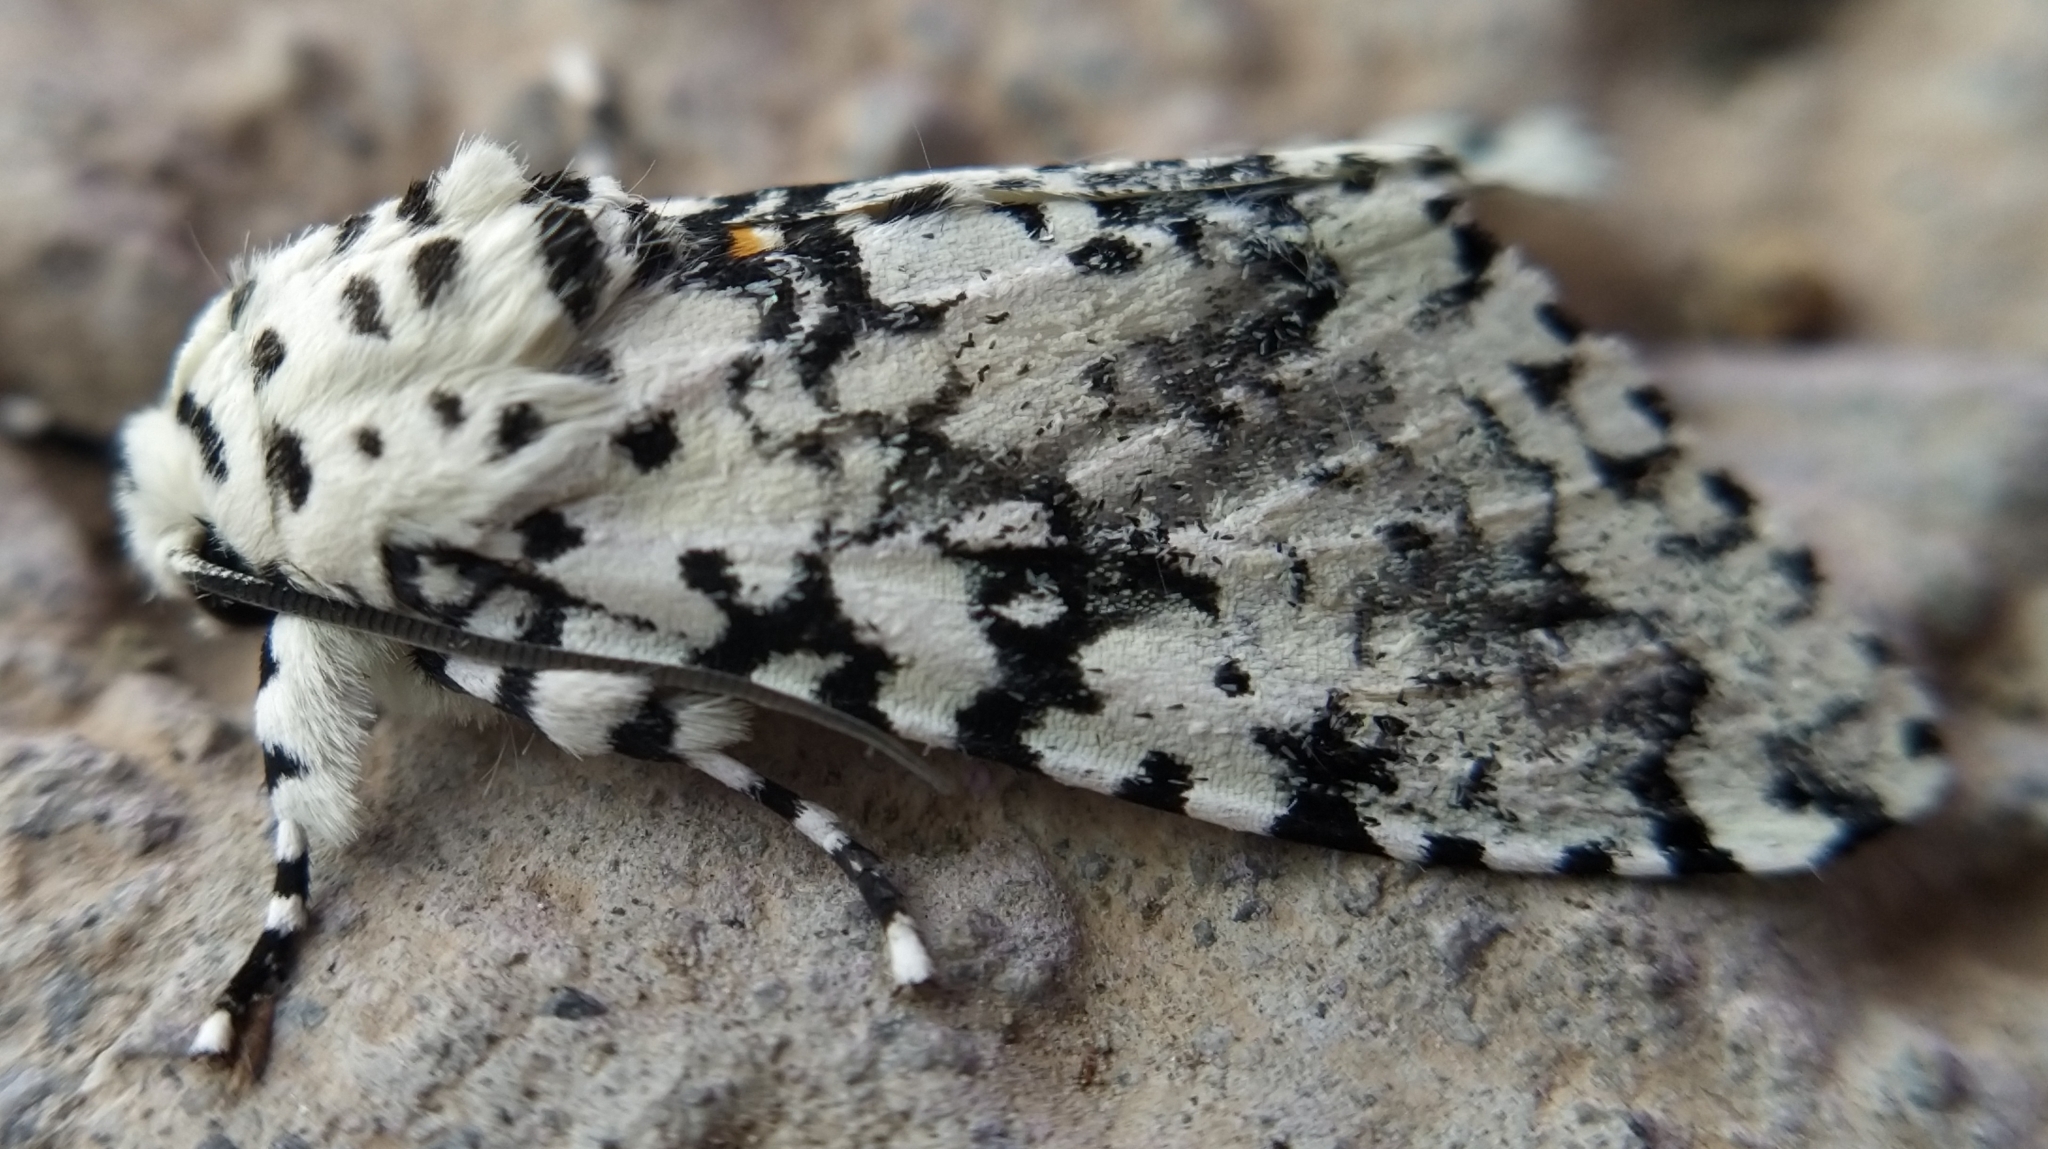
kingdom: Animalia
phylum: Arthropoda
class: Insecta
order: Lepidoptera
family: Noctuidae
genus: Lichnoptera
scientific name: Lichnoptera decora
